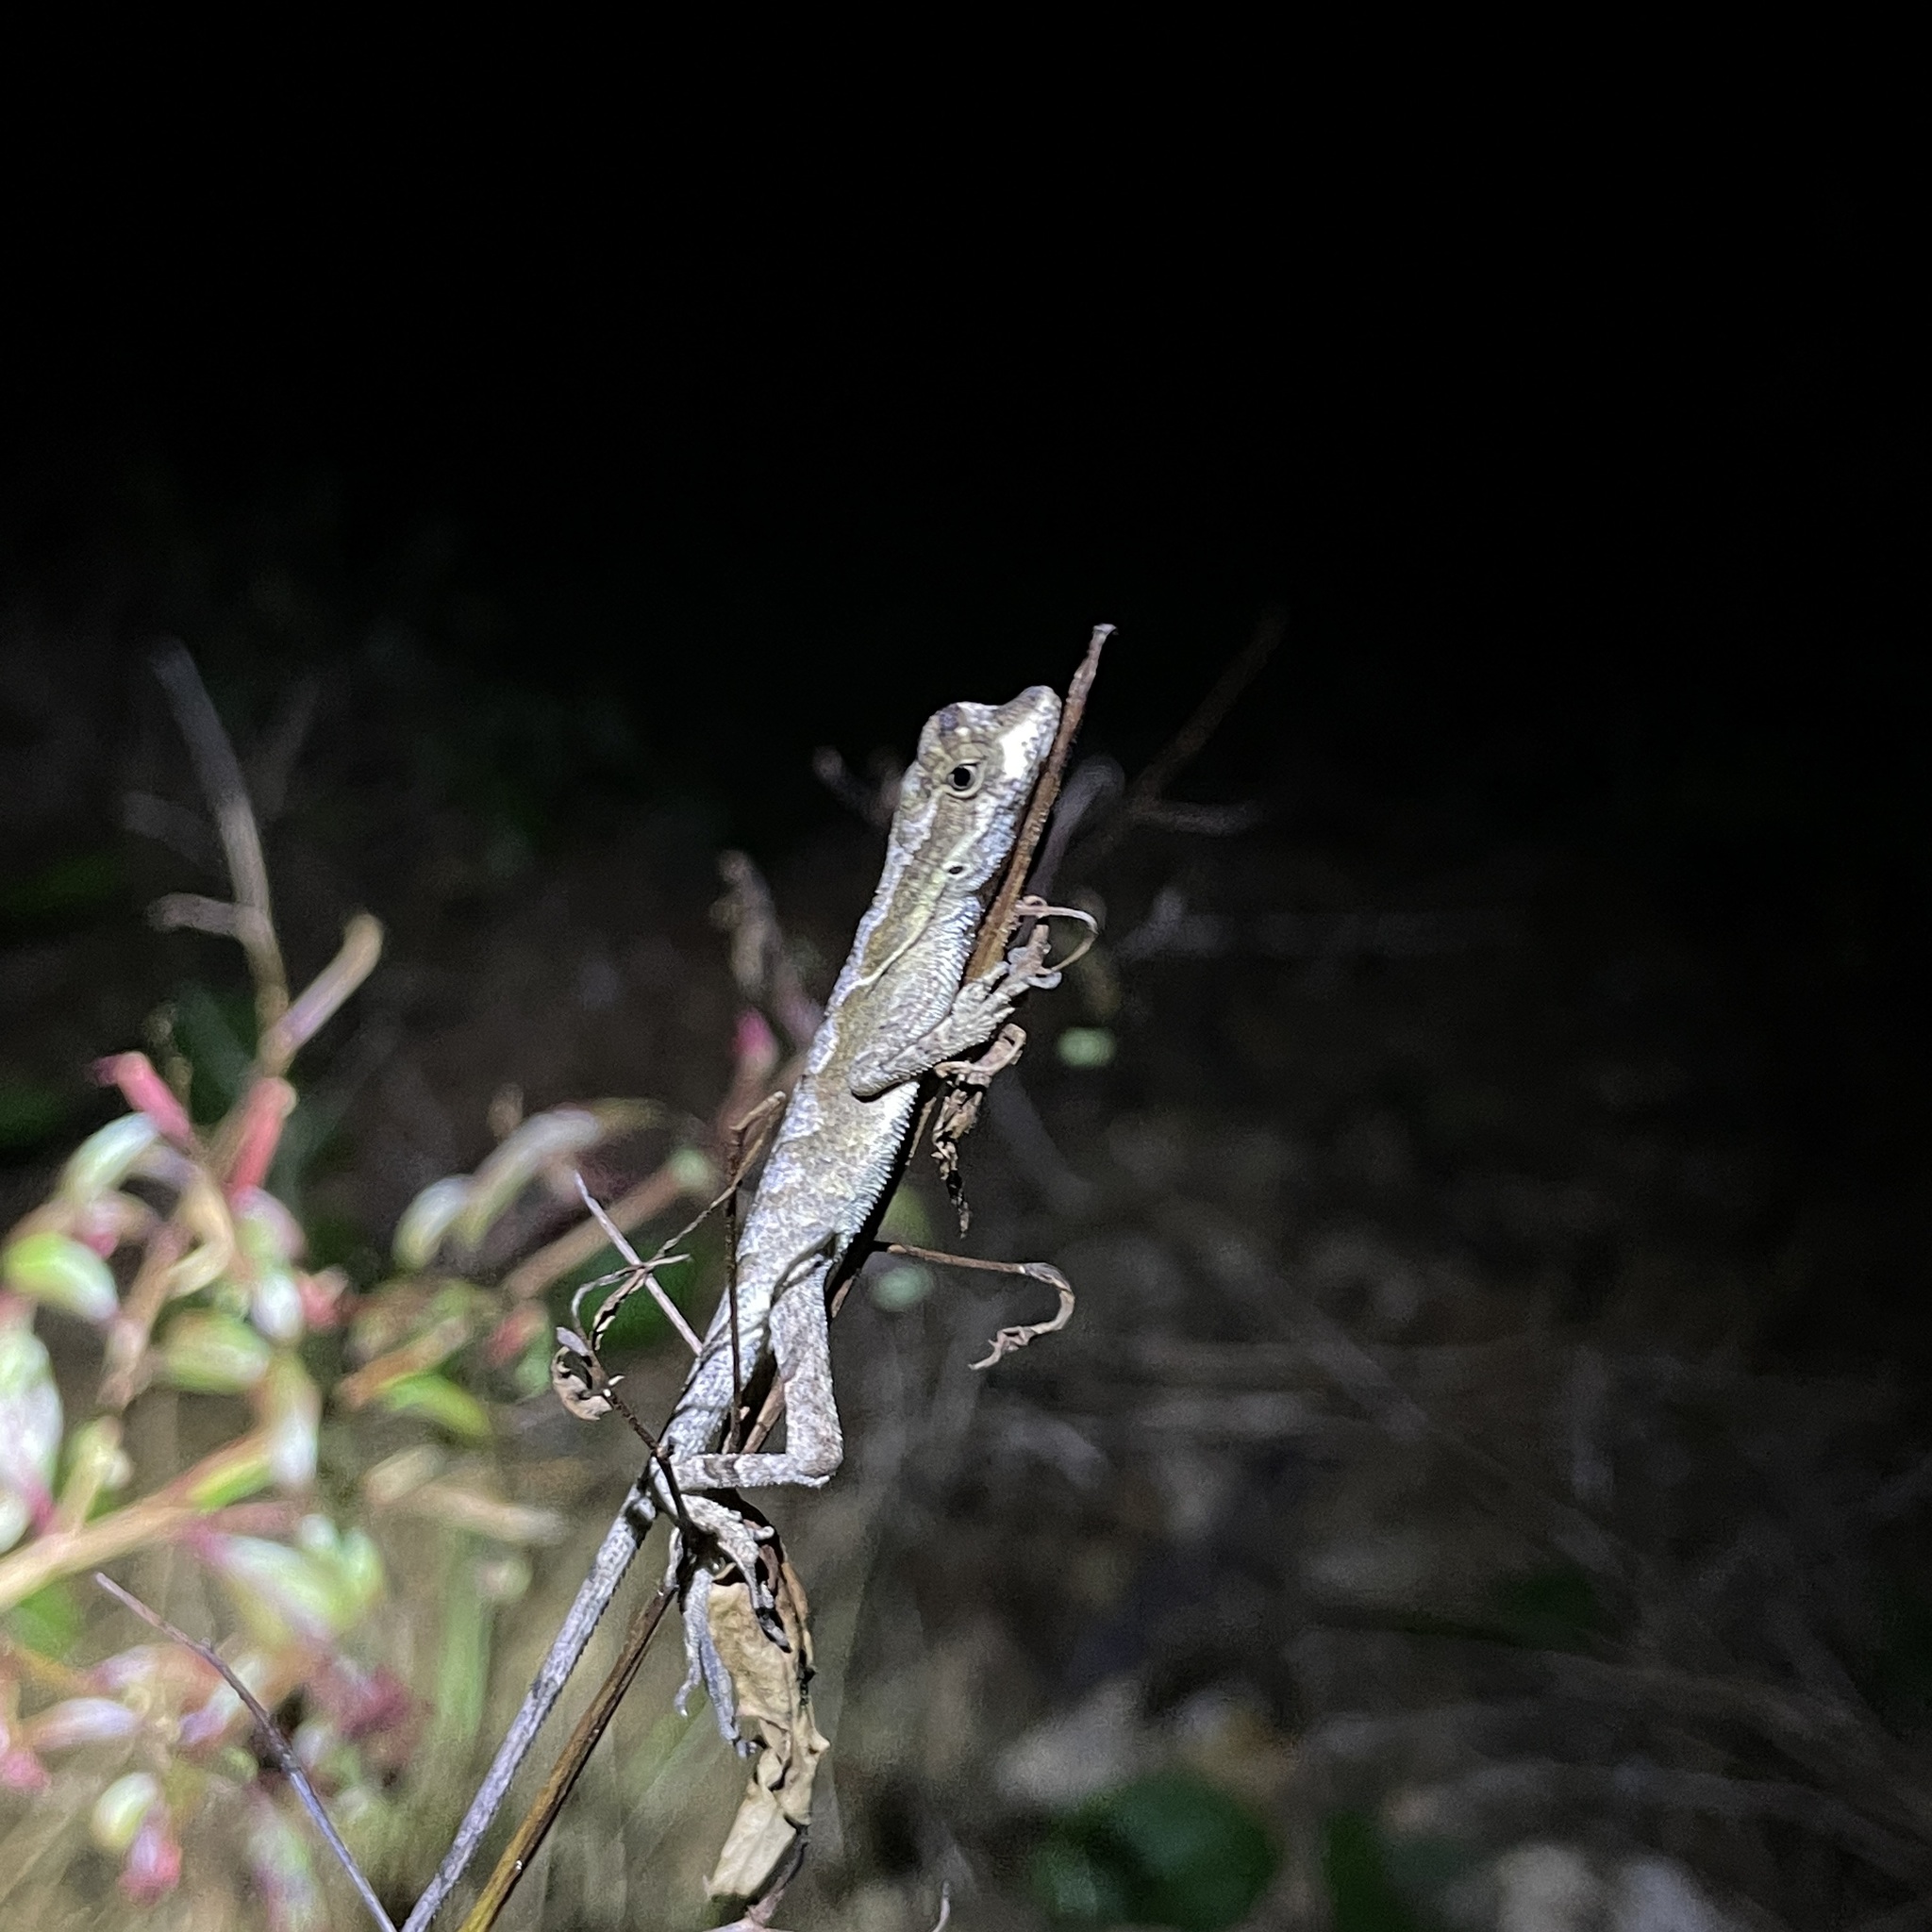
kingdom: Animalia
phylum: Chordata
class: Squamata
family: Dactyloidae
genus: Anolis
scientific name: Anolis planiceps
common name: Goldenscale anole
